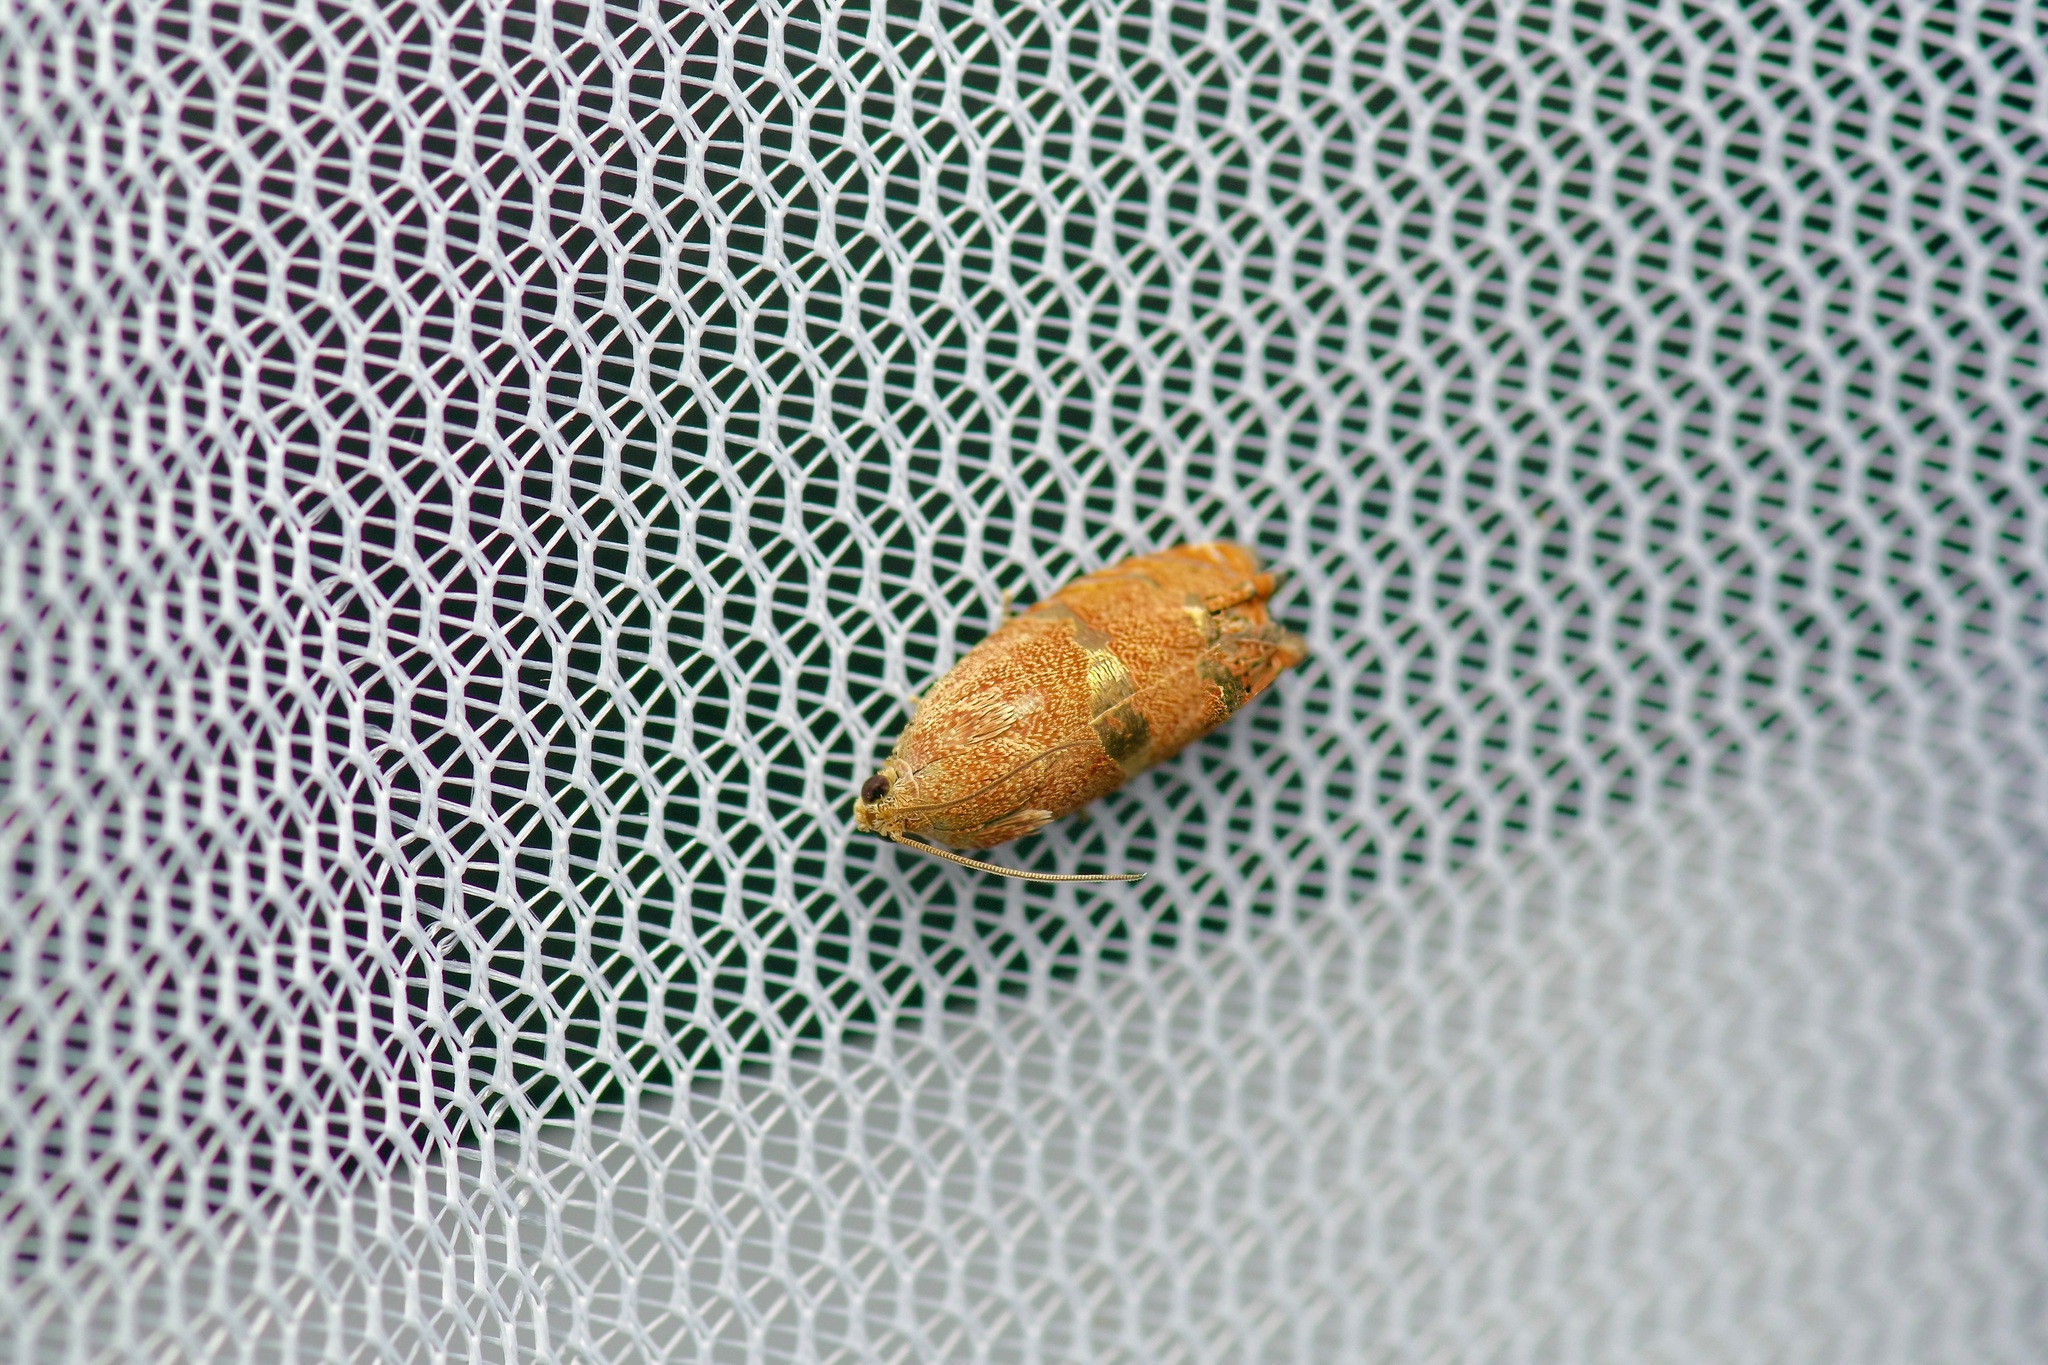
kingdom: Animalia
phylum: Arthropoda
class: Insecta
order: Lepidoptera
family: Tortricidae
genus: Cydia
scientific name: Cydia latiferreana
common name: Filbertworm moth
